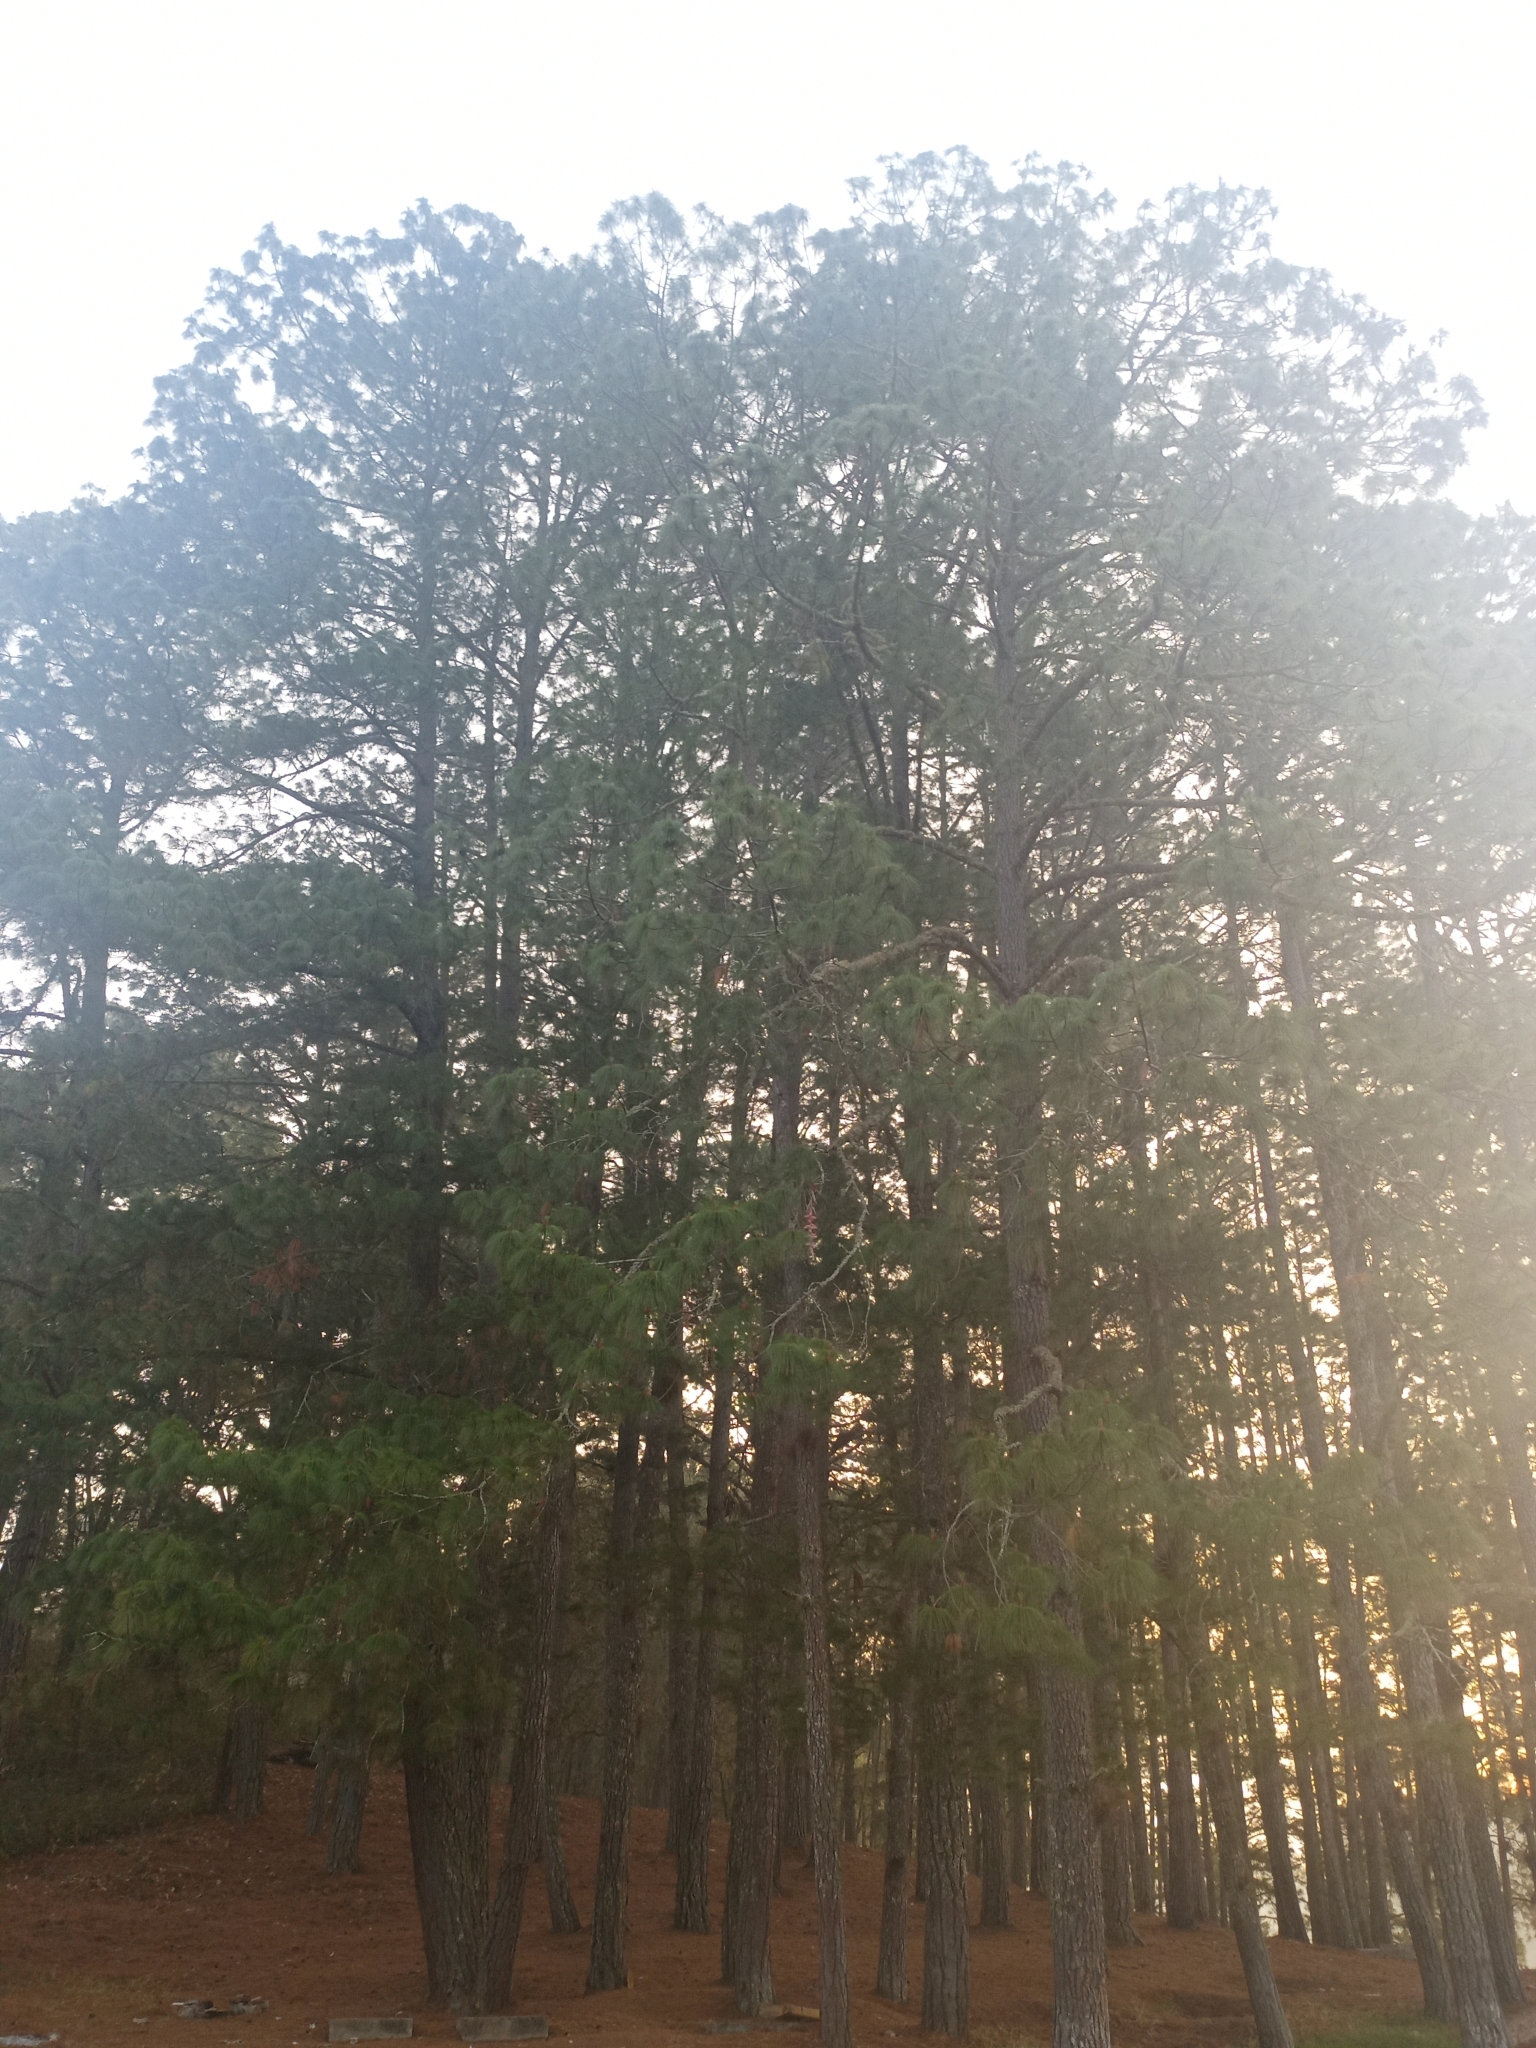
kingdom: Plantae
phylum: Tracheophyta
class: Pinopsida
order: Pinales
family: Pinaceae
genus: Pinus
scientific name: Pinus maximinoi
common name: Thin-leaf pine
